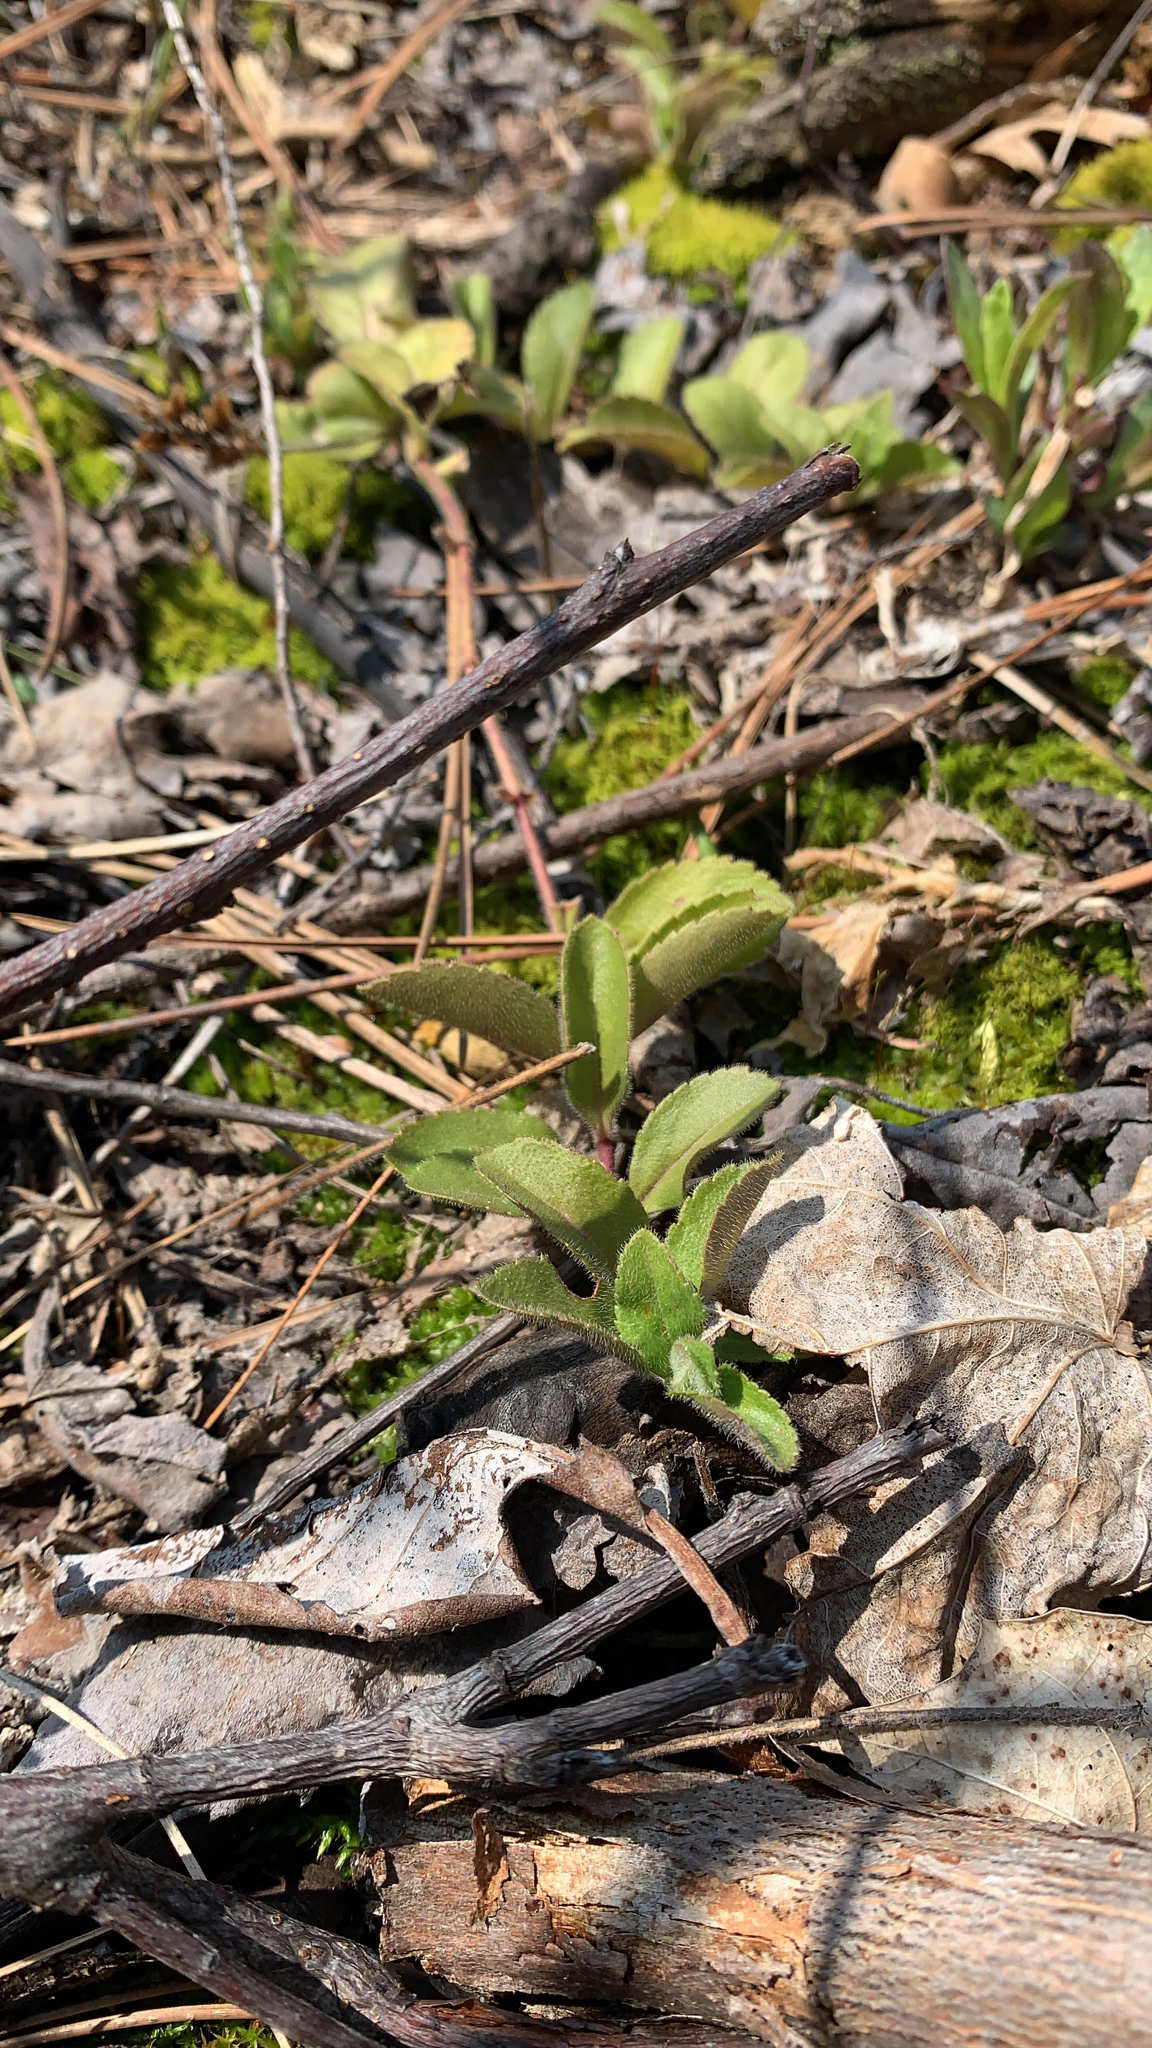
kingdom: Plantae
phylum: Tracheophyta
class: Magnoliopsida
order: Lamiales
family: Plantaginaceae
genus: Veronica
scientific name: Veronica officinalis
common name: Common speedwell
